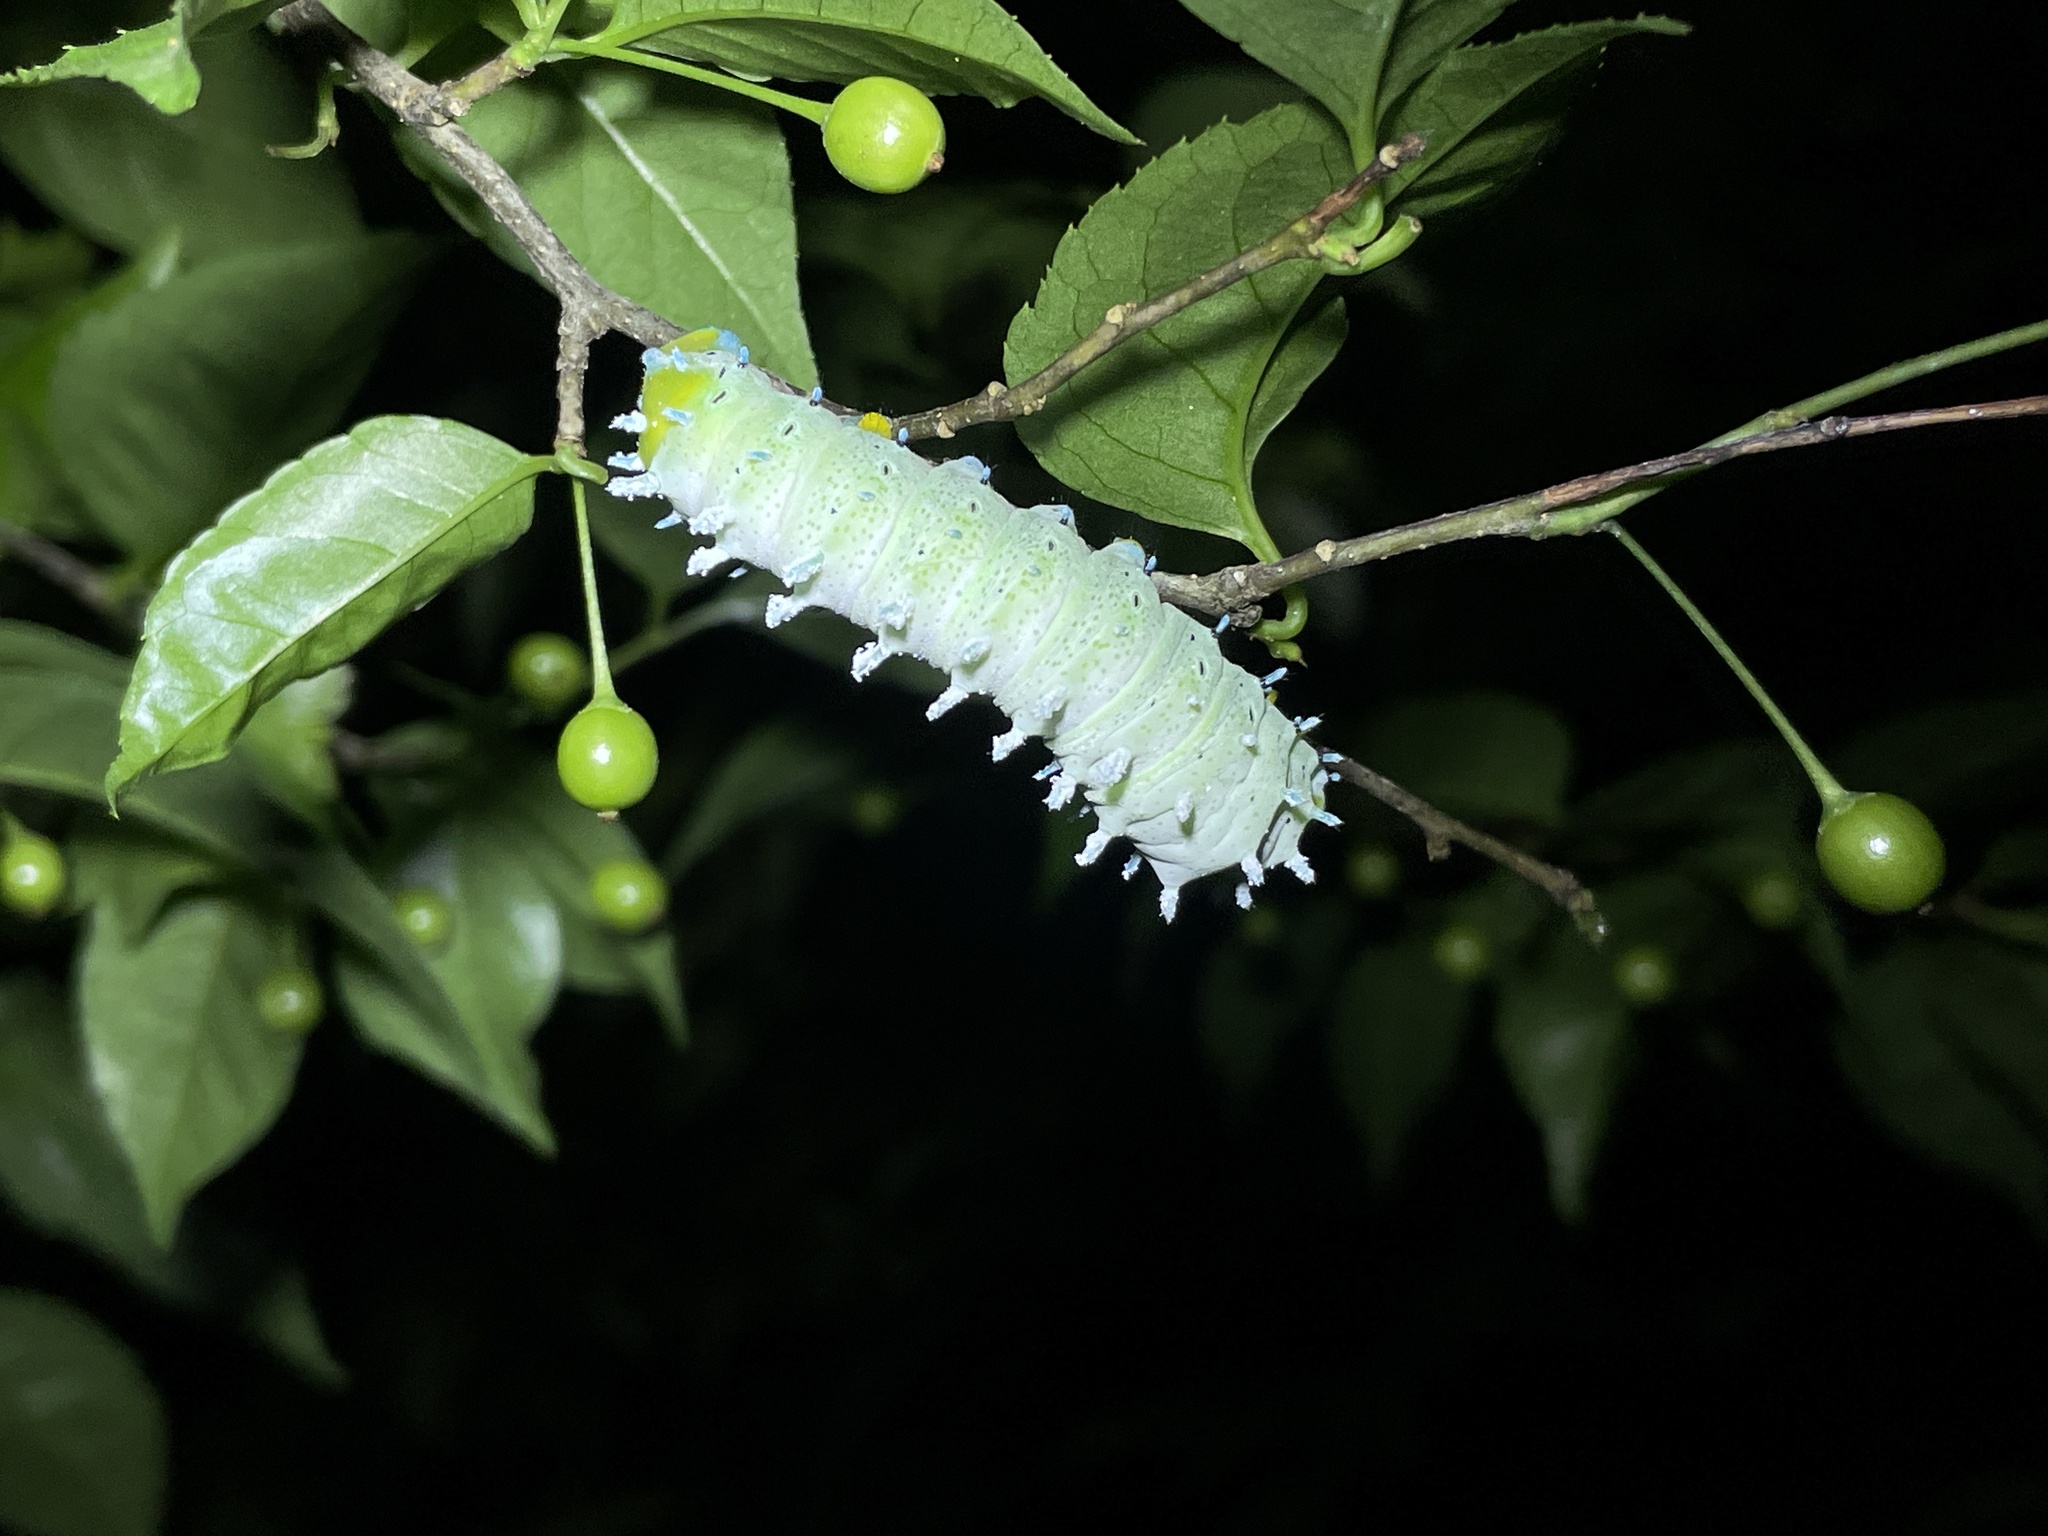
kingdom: Animalia
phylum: Arthropoda
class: Insecta
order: Lepidoptera
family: Saturniidae
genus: Samia
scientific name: Samia wangi
